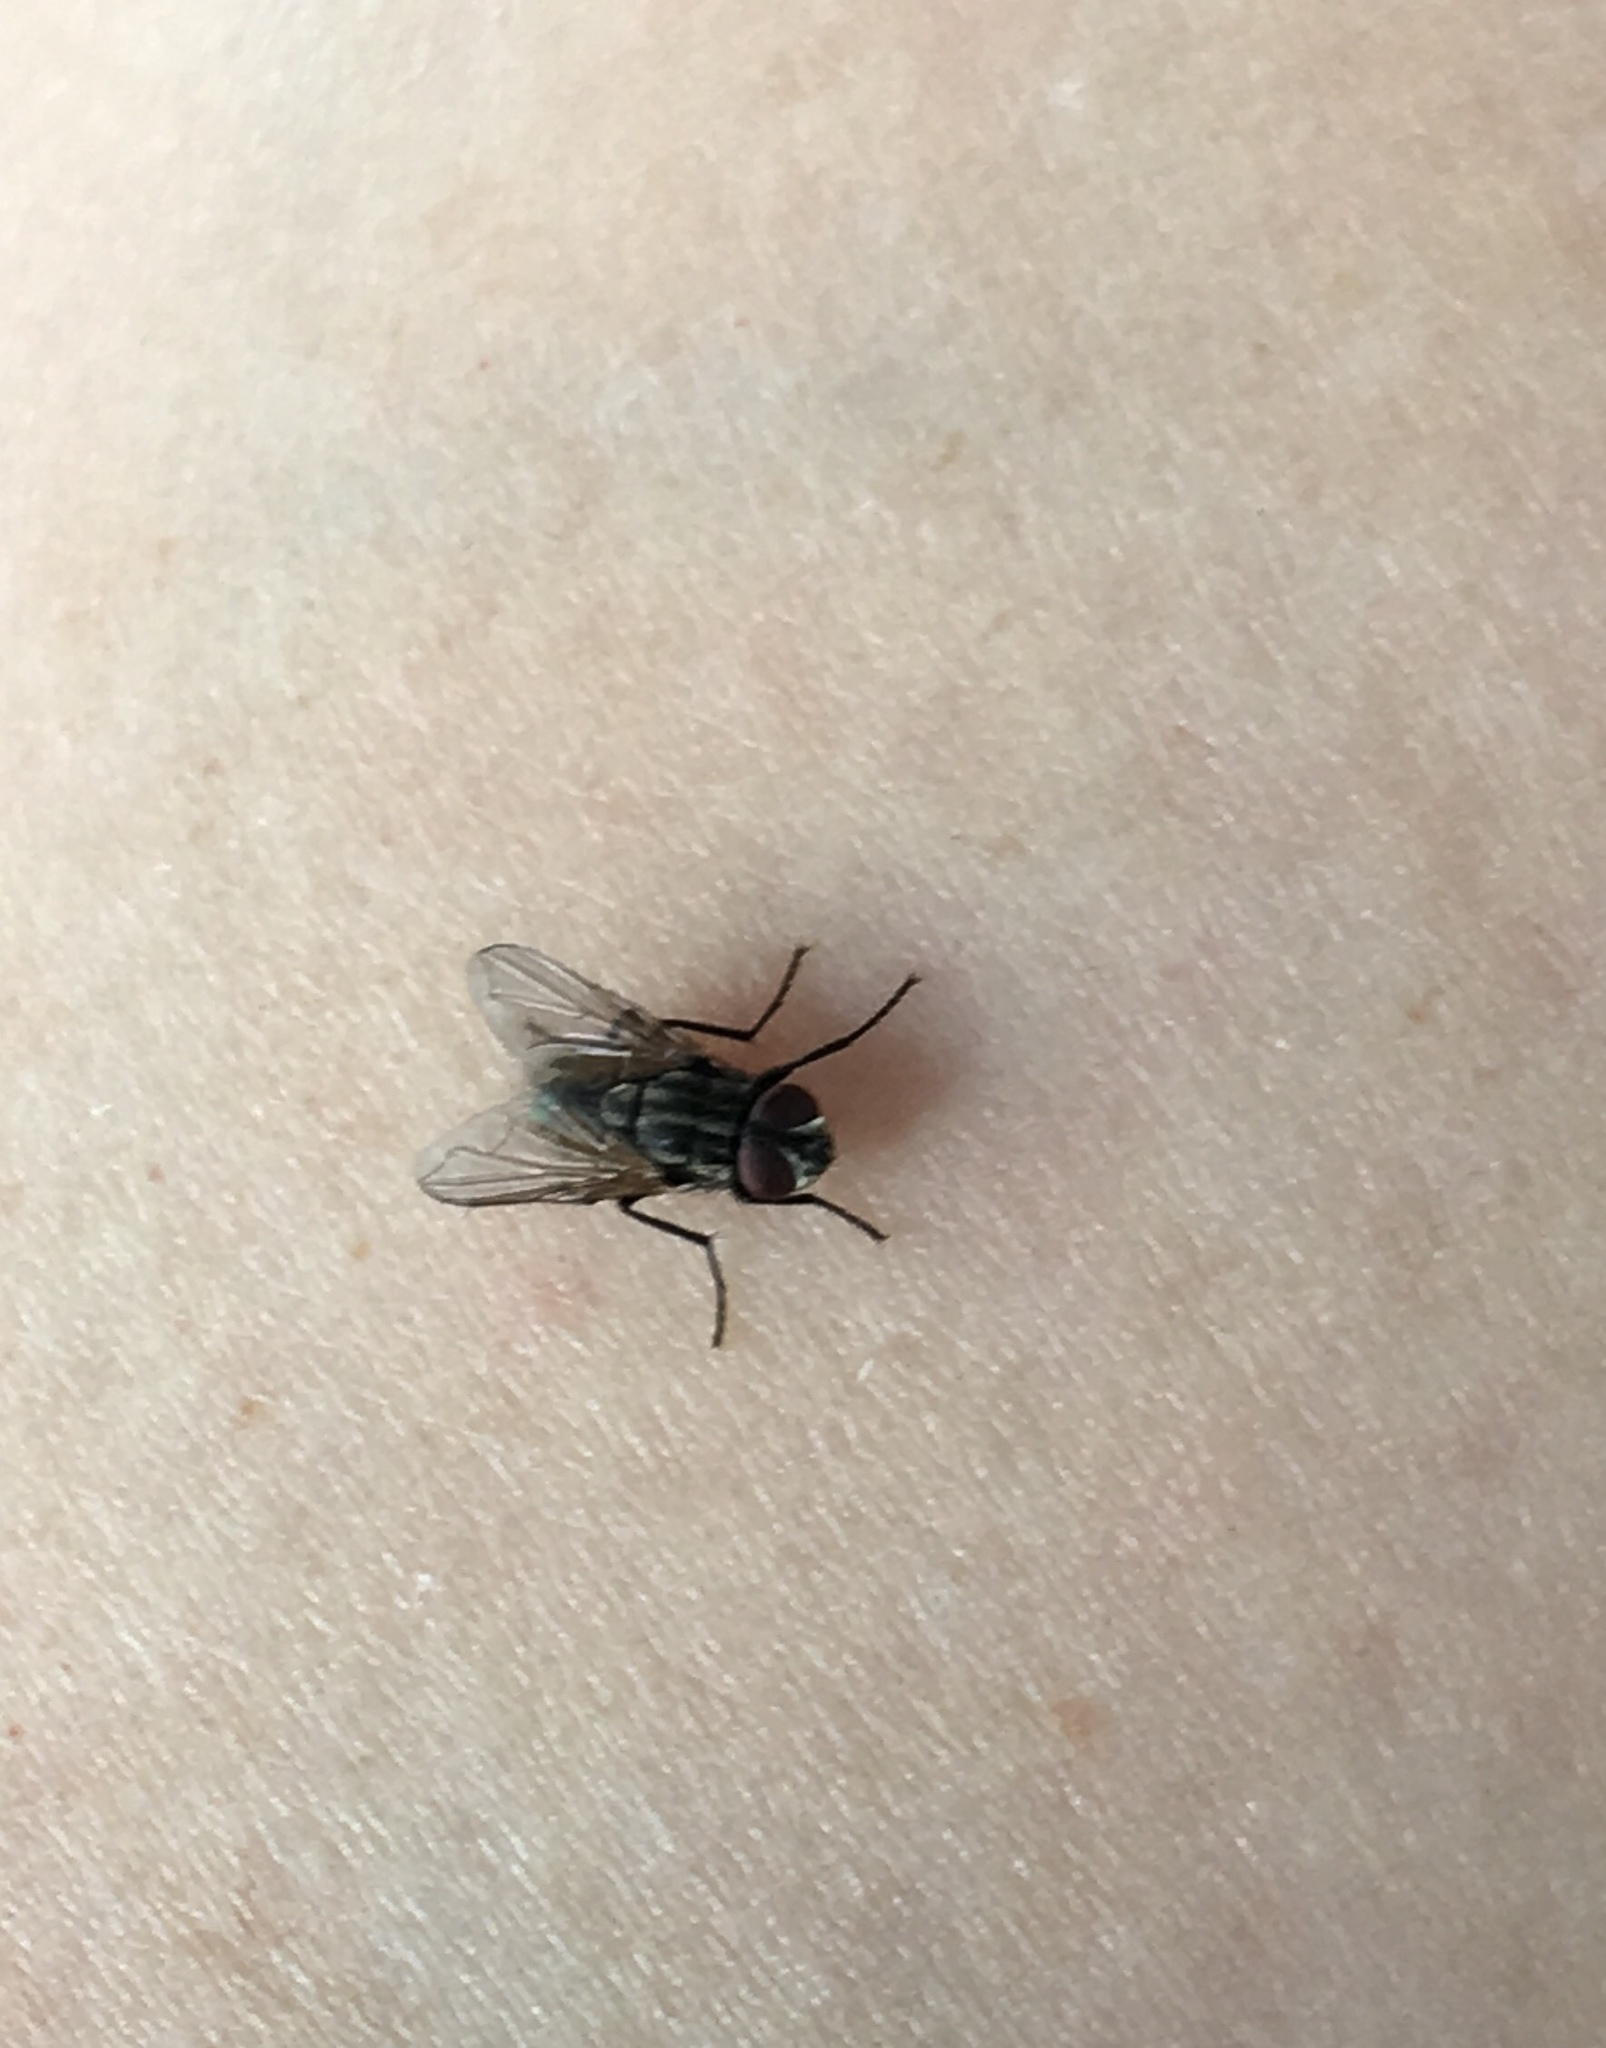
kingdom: Animalia
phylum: Arthropoda
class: Insecta
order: Diptera
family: Muscidae
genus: Musca
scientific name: Musca domestica
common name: House fly
